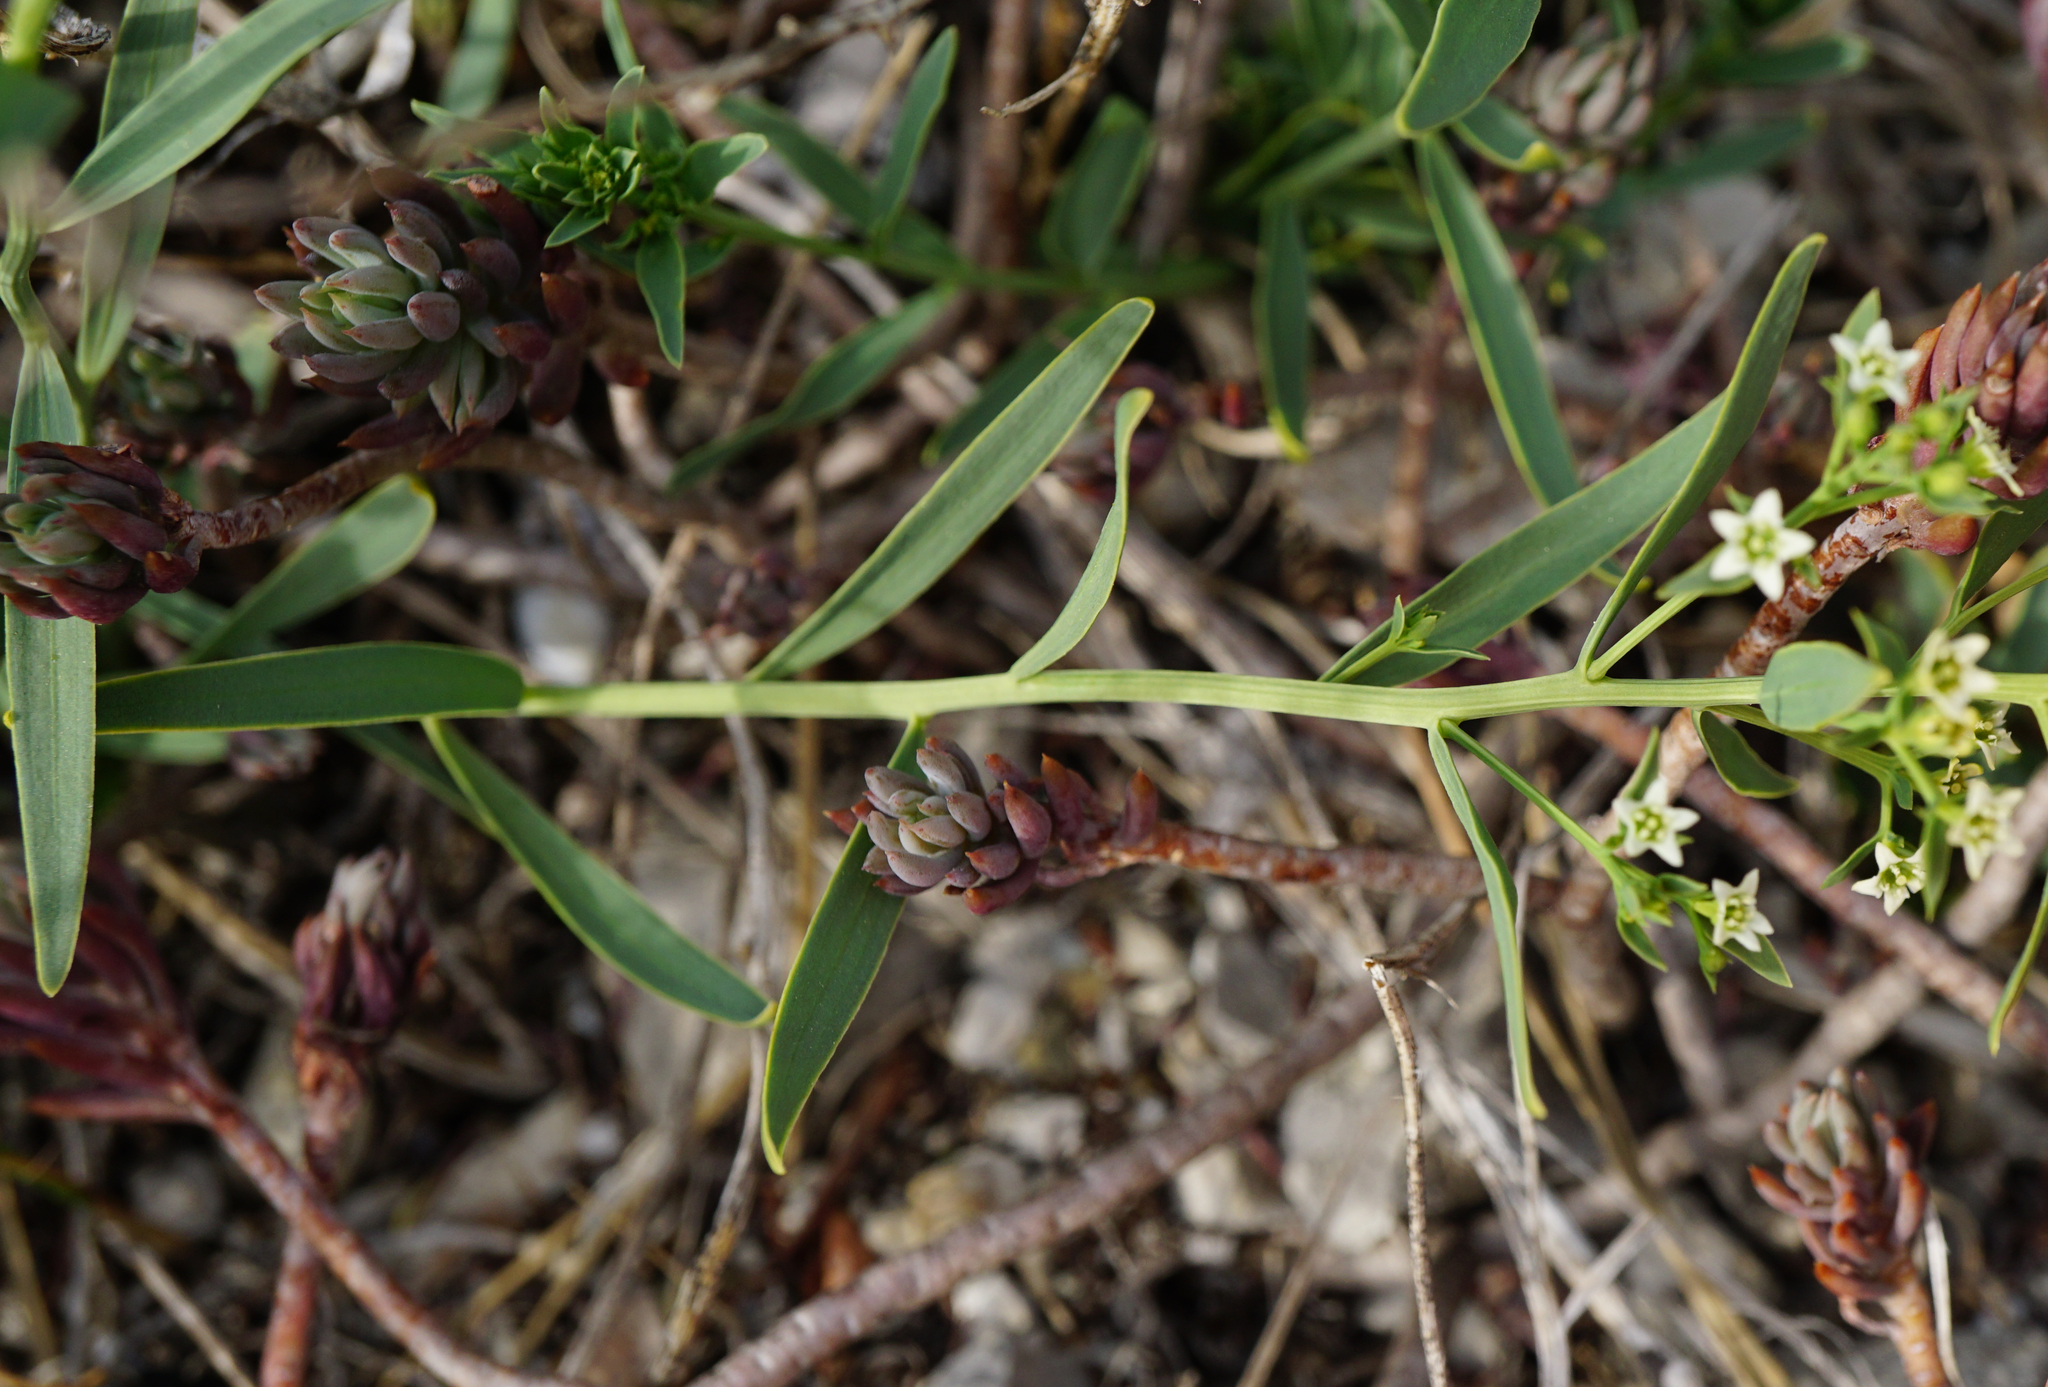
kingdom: Plantae
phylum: Tracheophyta
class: Magnoliopsida
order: Santalales
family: Thesiaceae
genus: Thesium
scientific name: Thesium linophyllon
